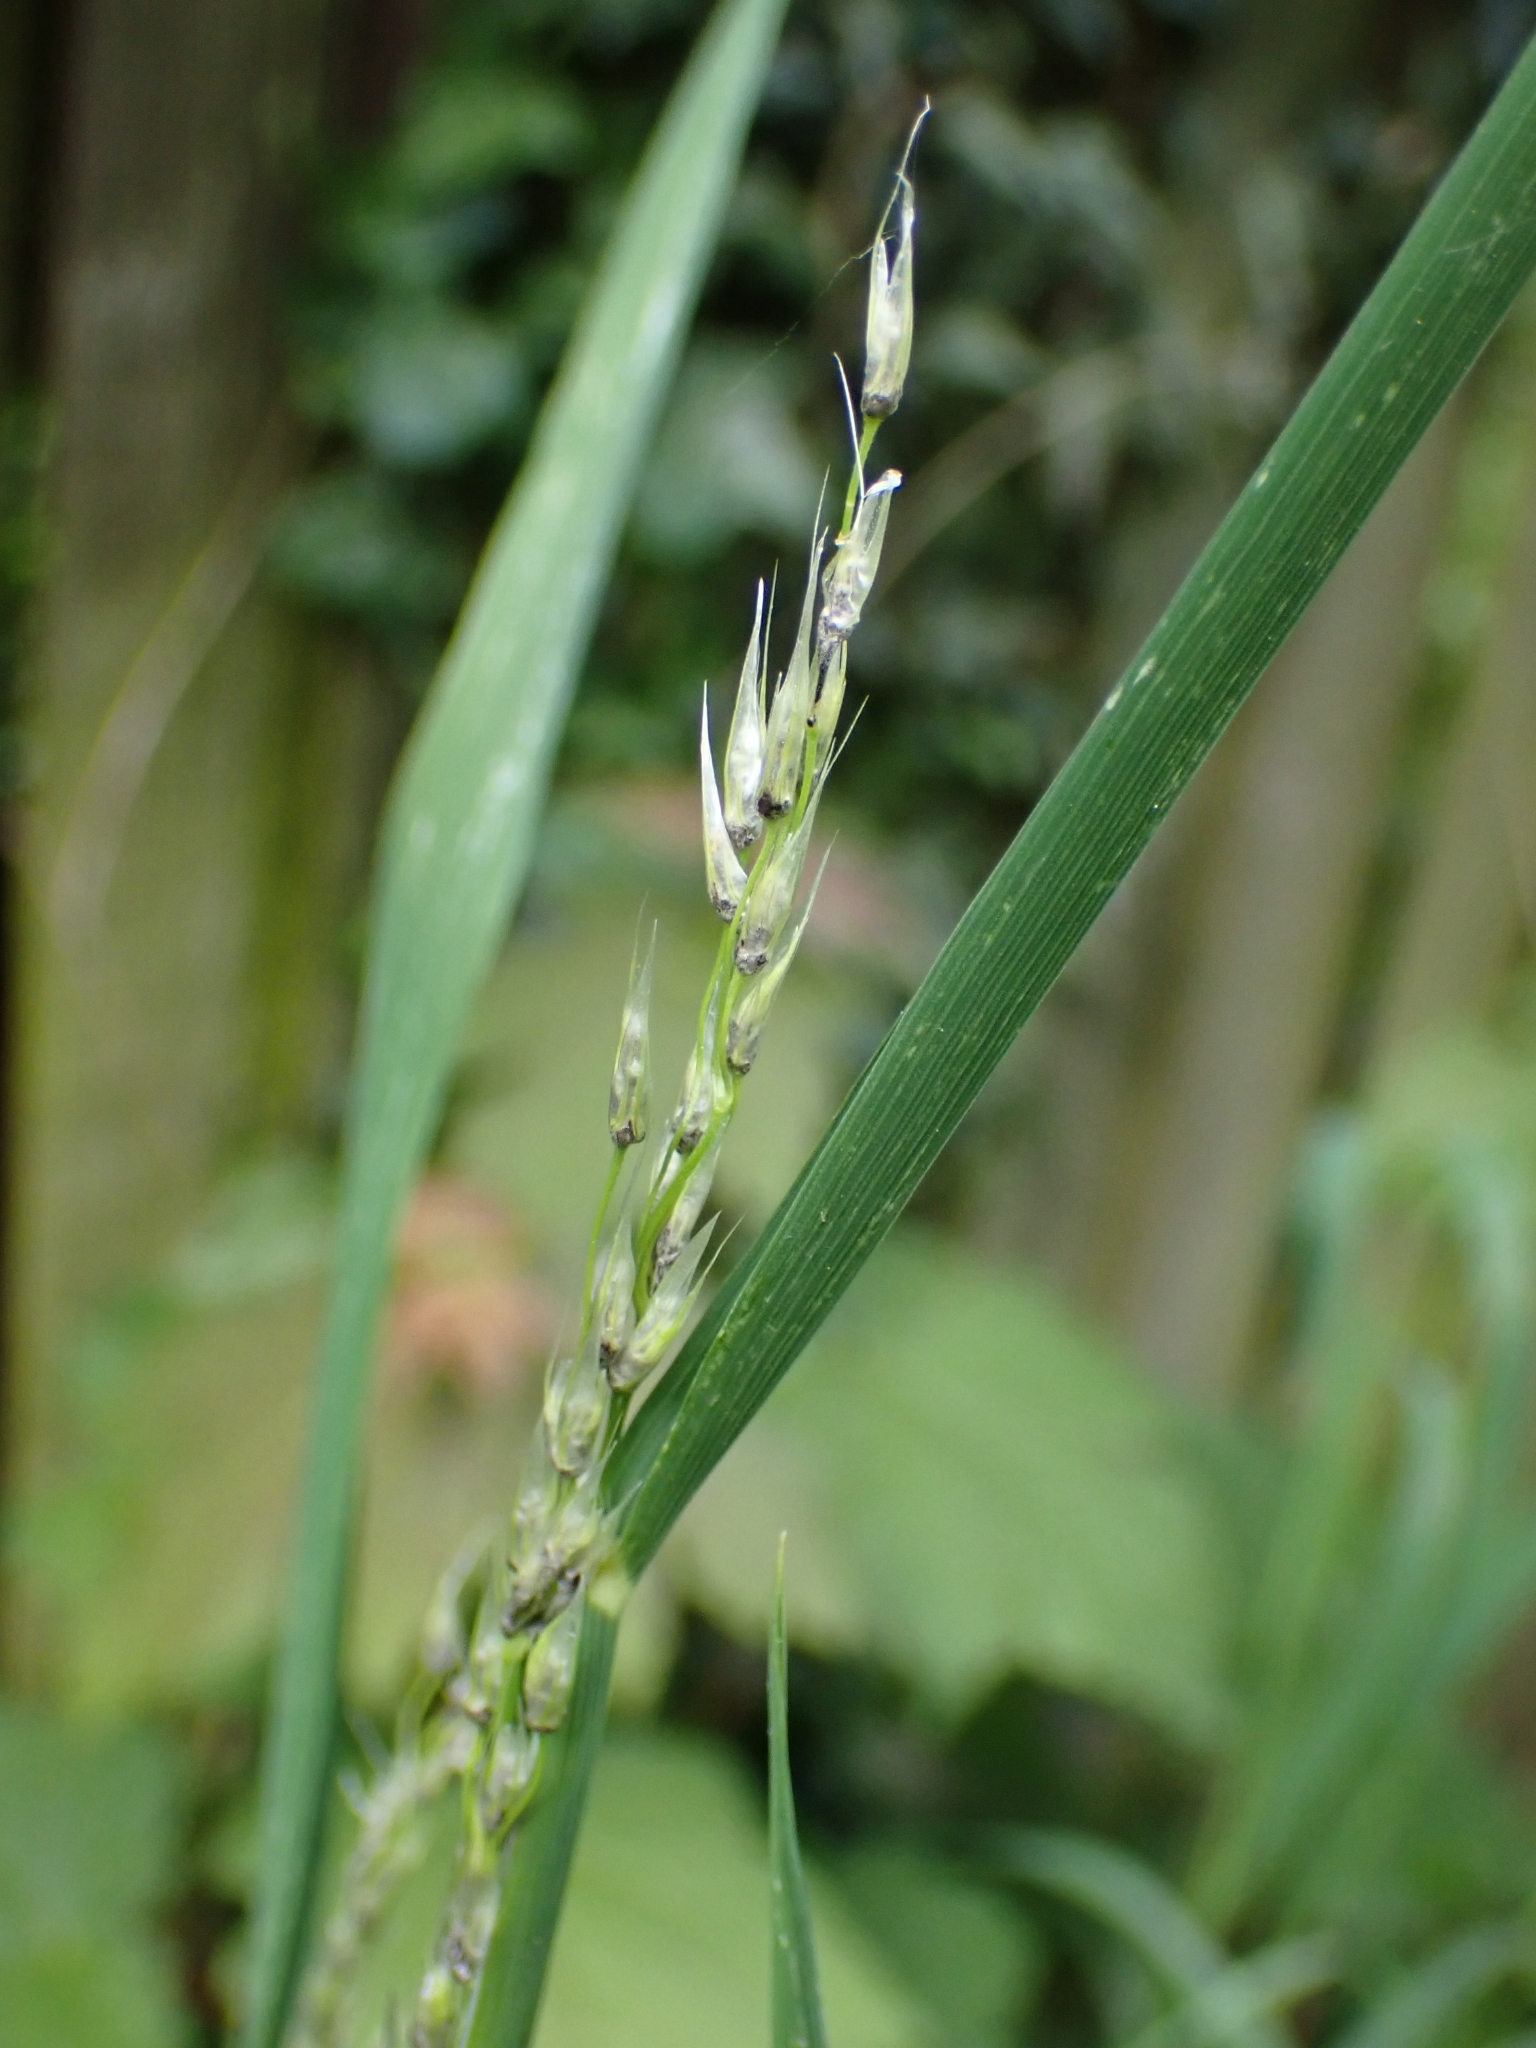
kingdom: Fungi
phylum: Basidiomycota
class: Ustilaginomycetes
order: Ustilaginales
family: Ustilaginaceae
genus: Ustilago
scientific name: Ustilago avenae
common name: Loose smut of oats & oat grass
